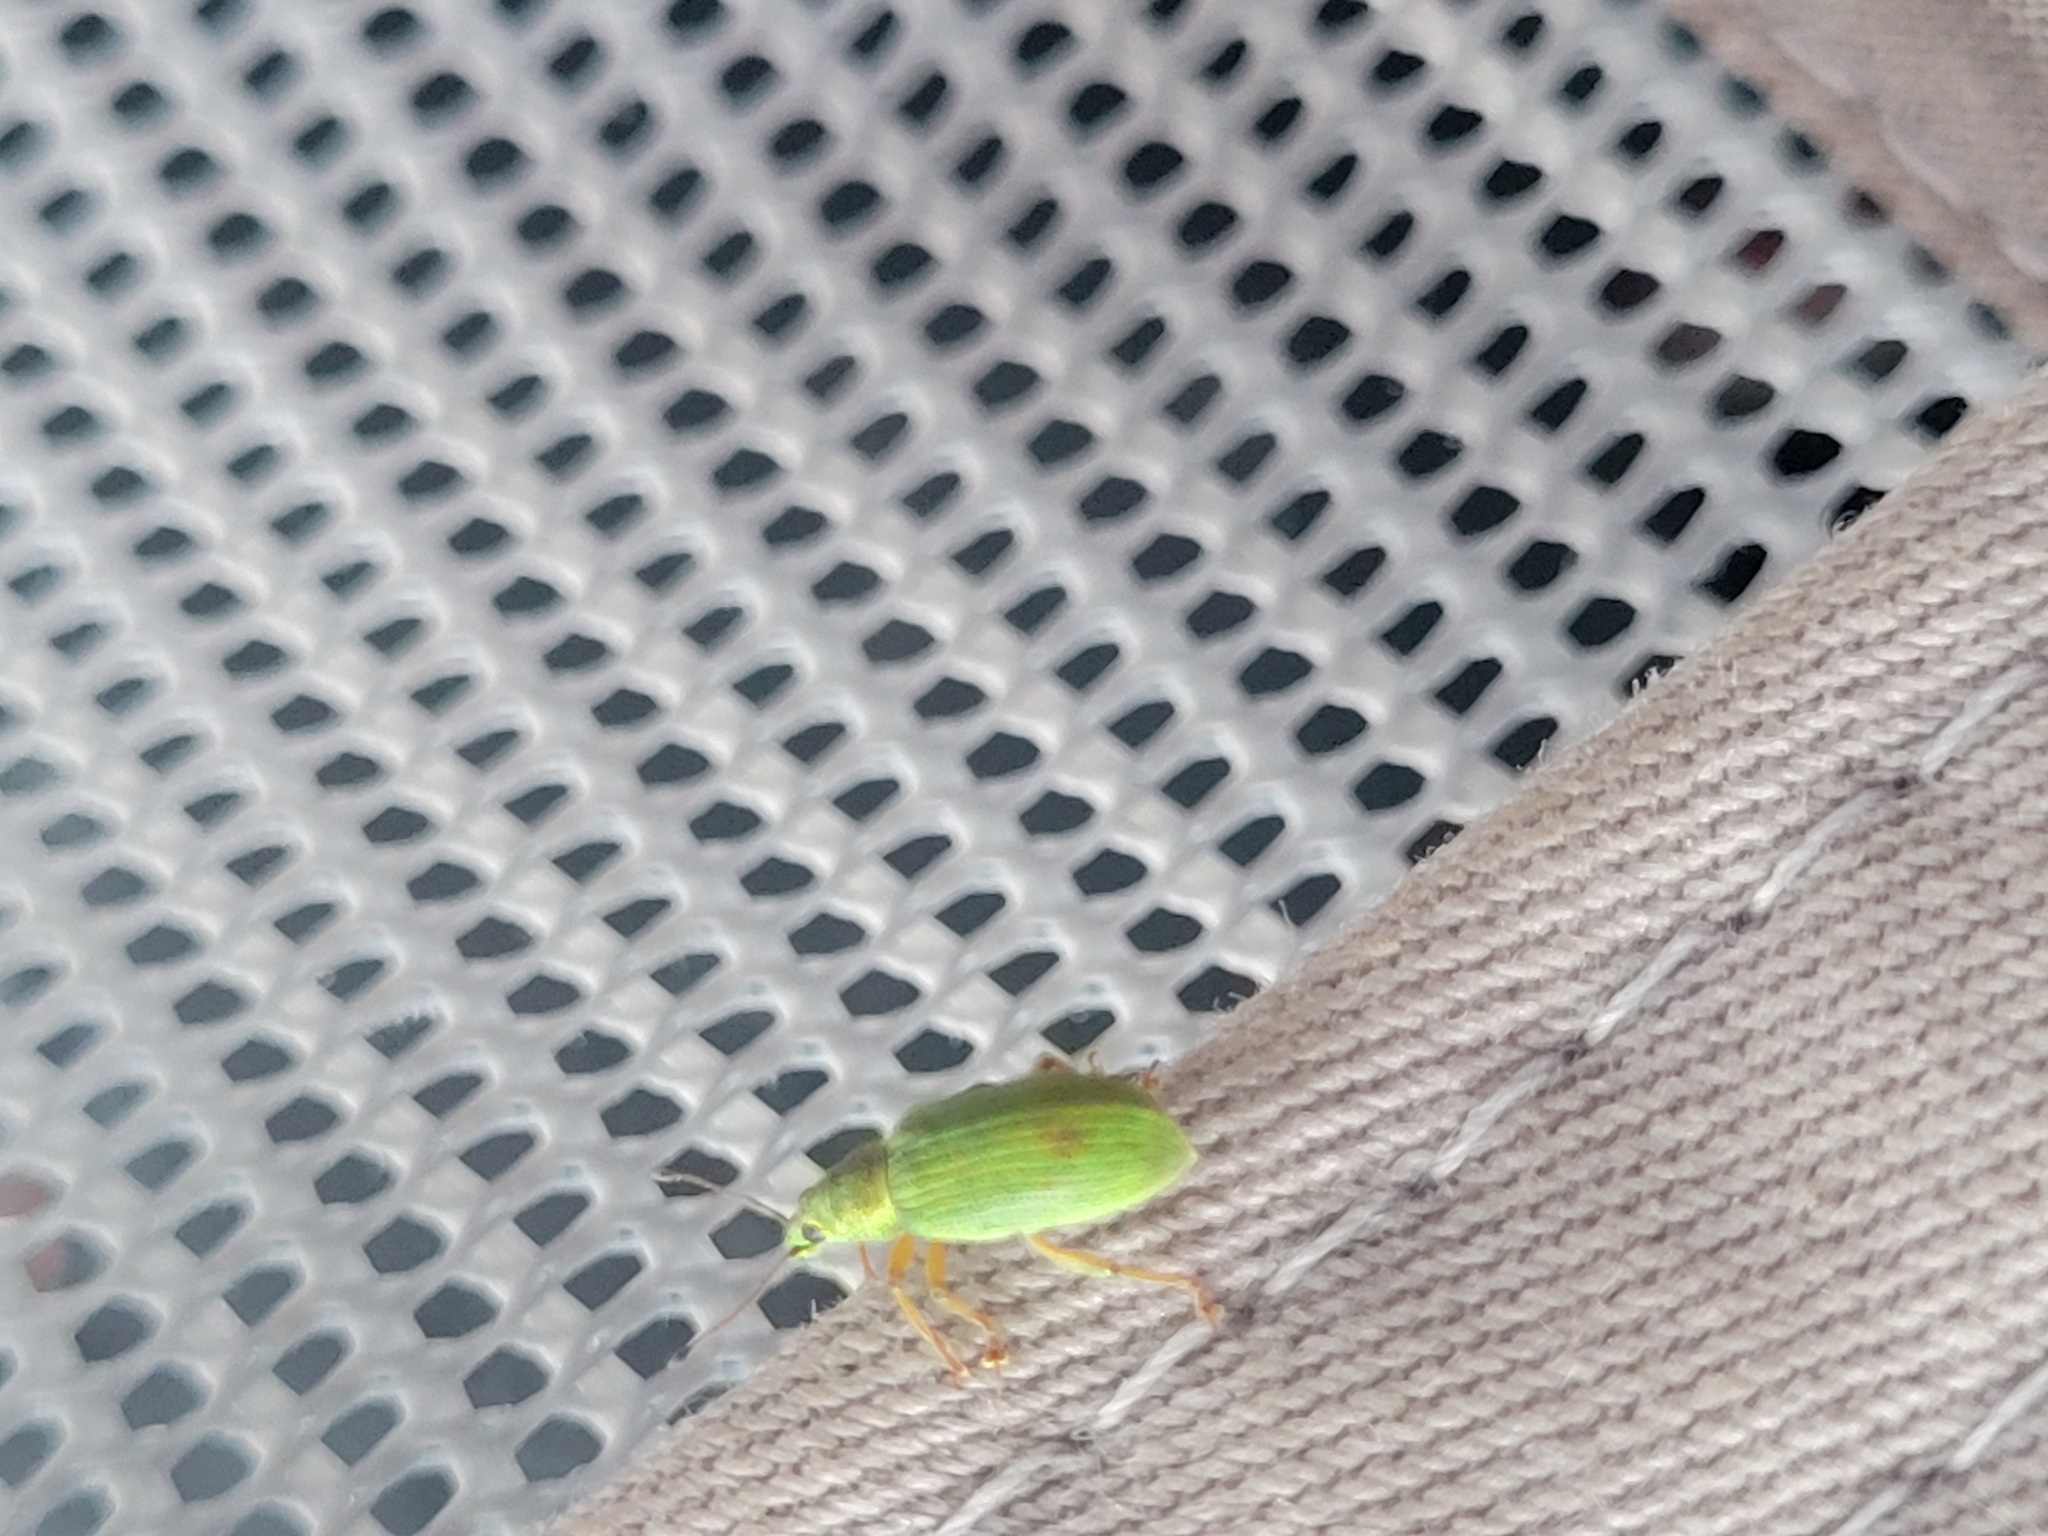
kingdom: Animalia
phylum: Arthropoda
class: Insecta
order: Coleoptera
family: Curculionidae
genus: Polydrusus
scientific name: Polydrusus formosus
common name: Weevil
